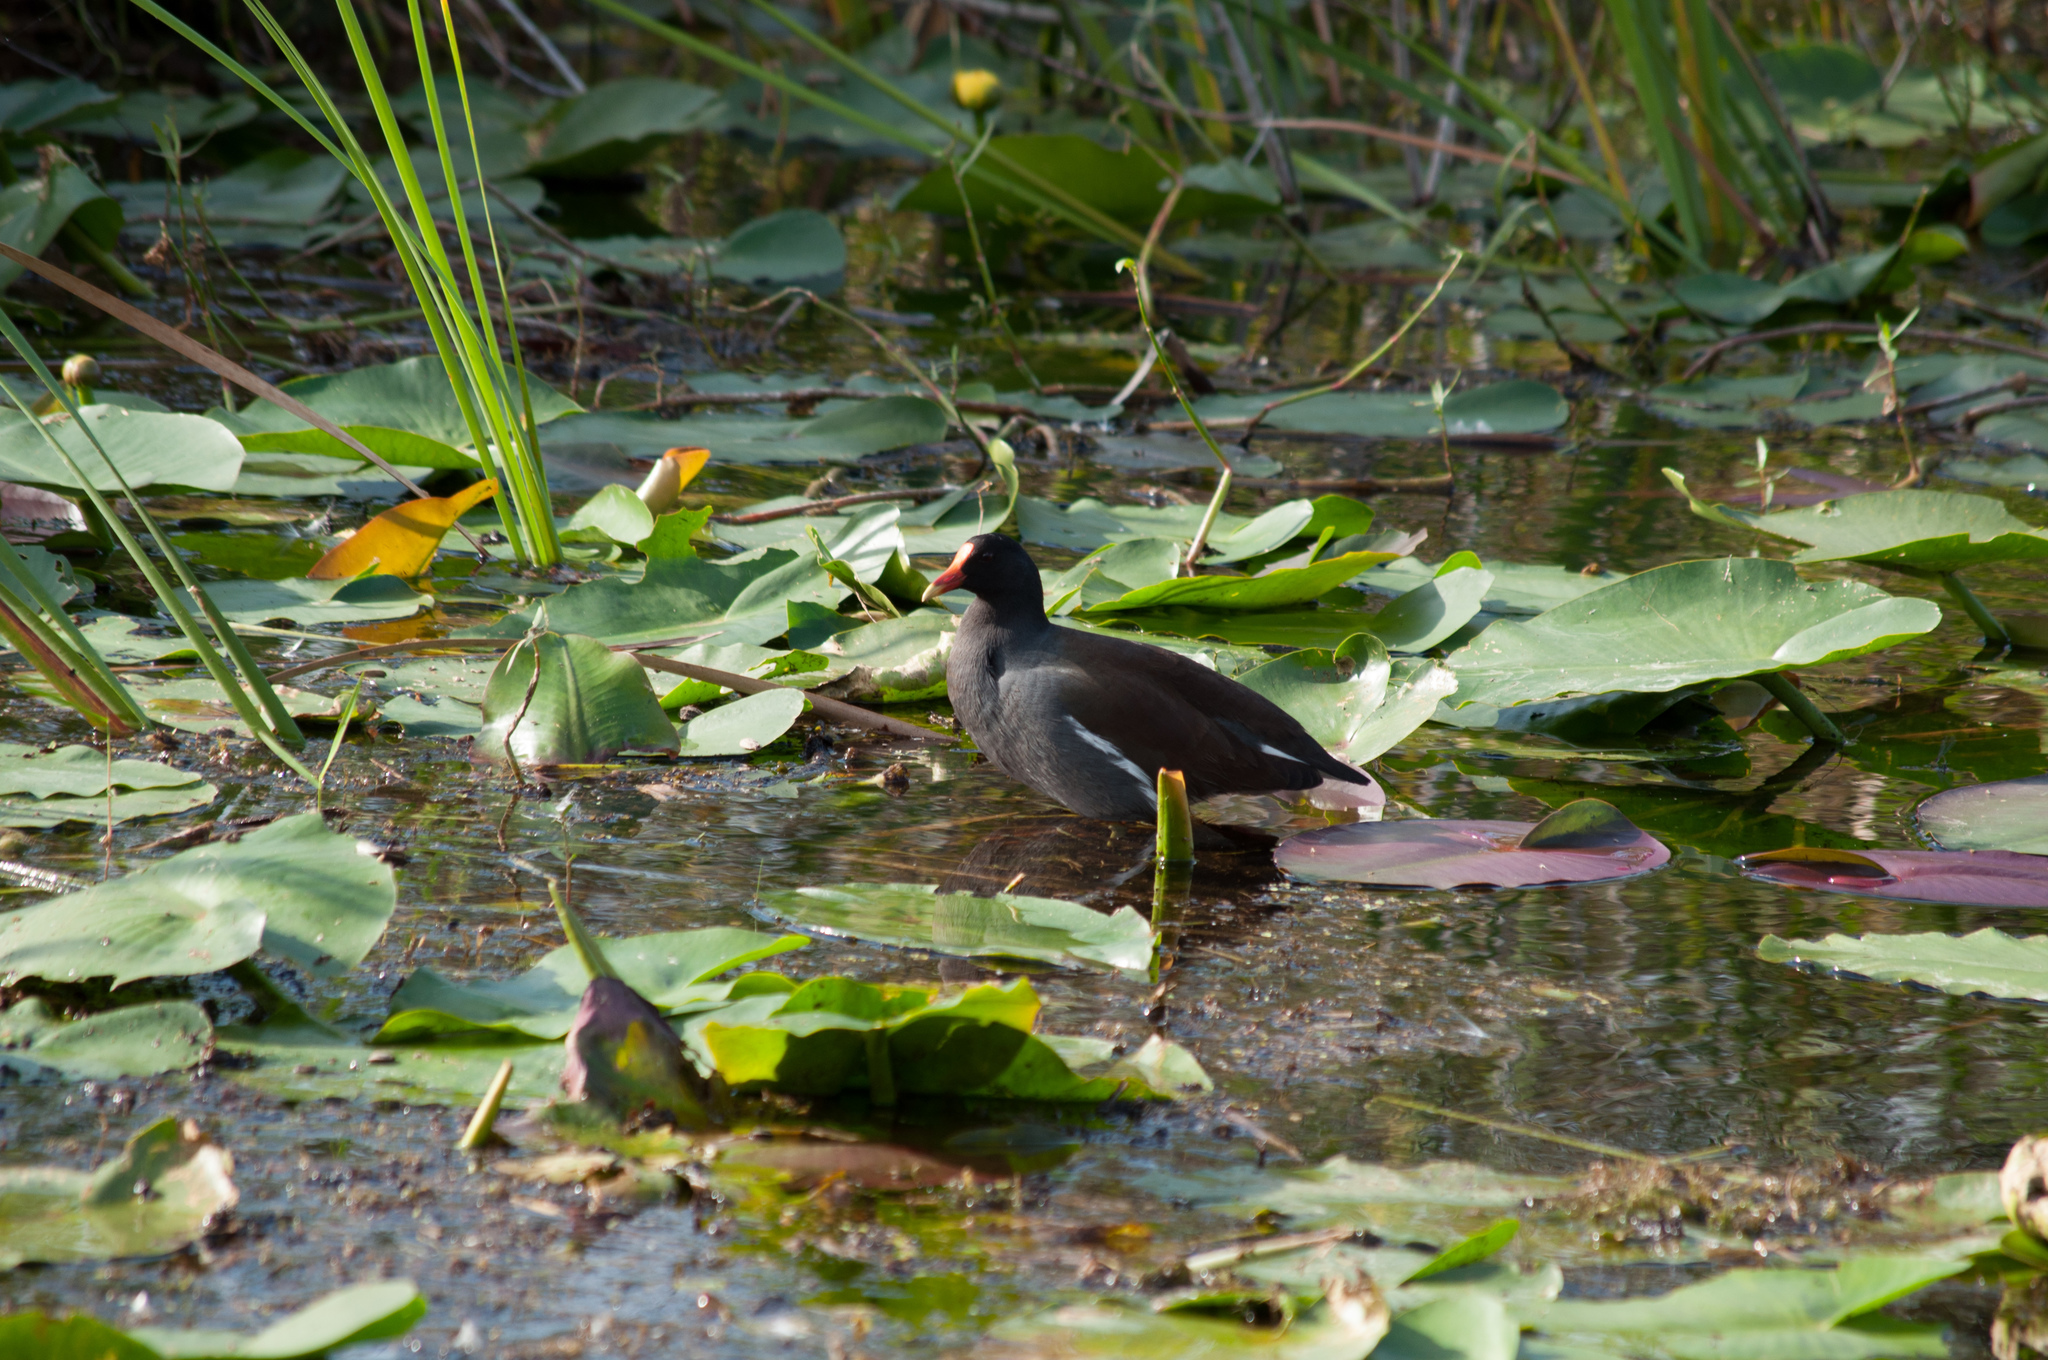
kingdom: Animalia
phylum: Chordata
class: Aves
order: Gruiformes
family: Rallidae
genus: Gallinula
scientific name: Gallinula chloropus
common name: Common moorhen
